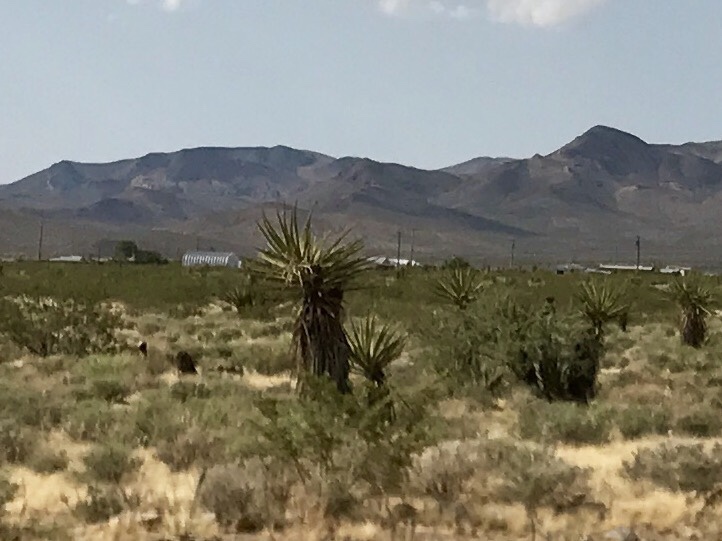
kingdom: Plantae
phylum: Tracheophyta
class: Liliopsida
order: Asparagales
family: Asparagaceae
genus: Yucca
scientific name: Yucca schidigera
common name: Mojave yucca
